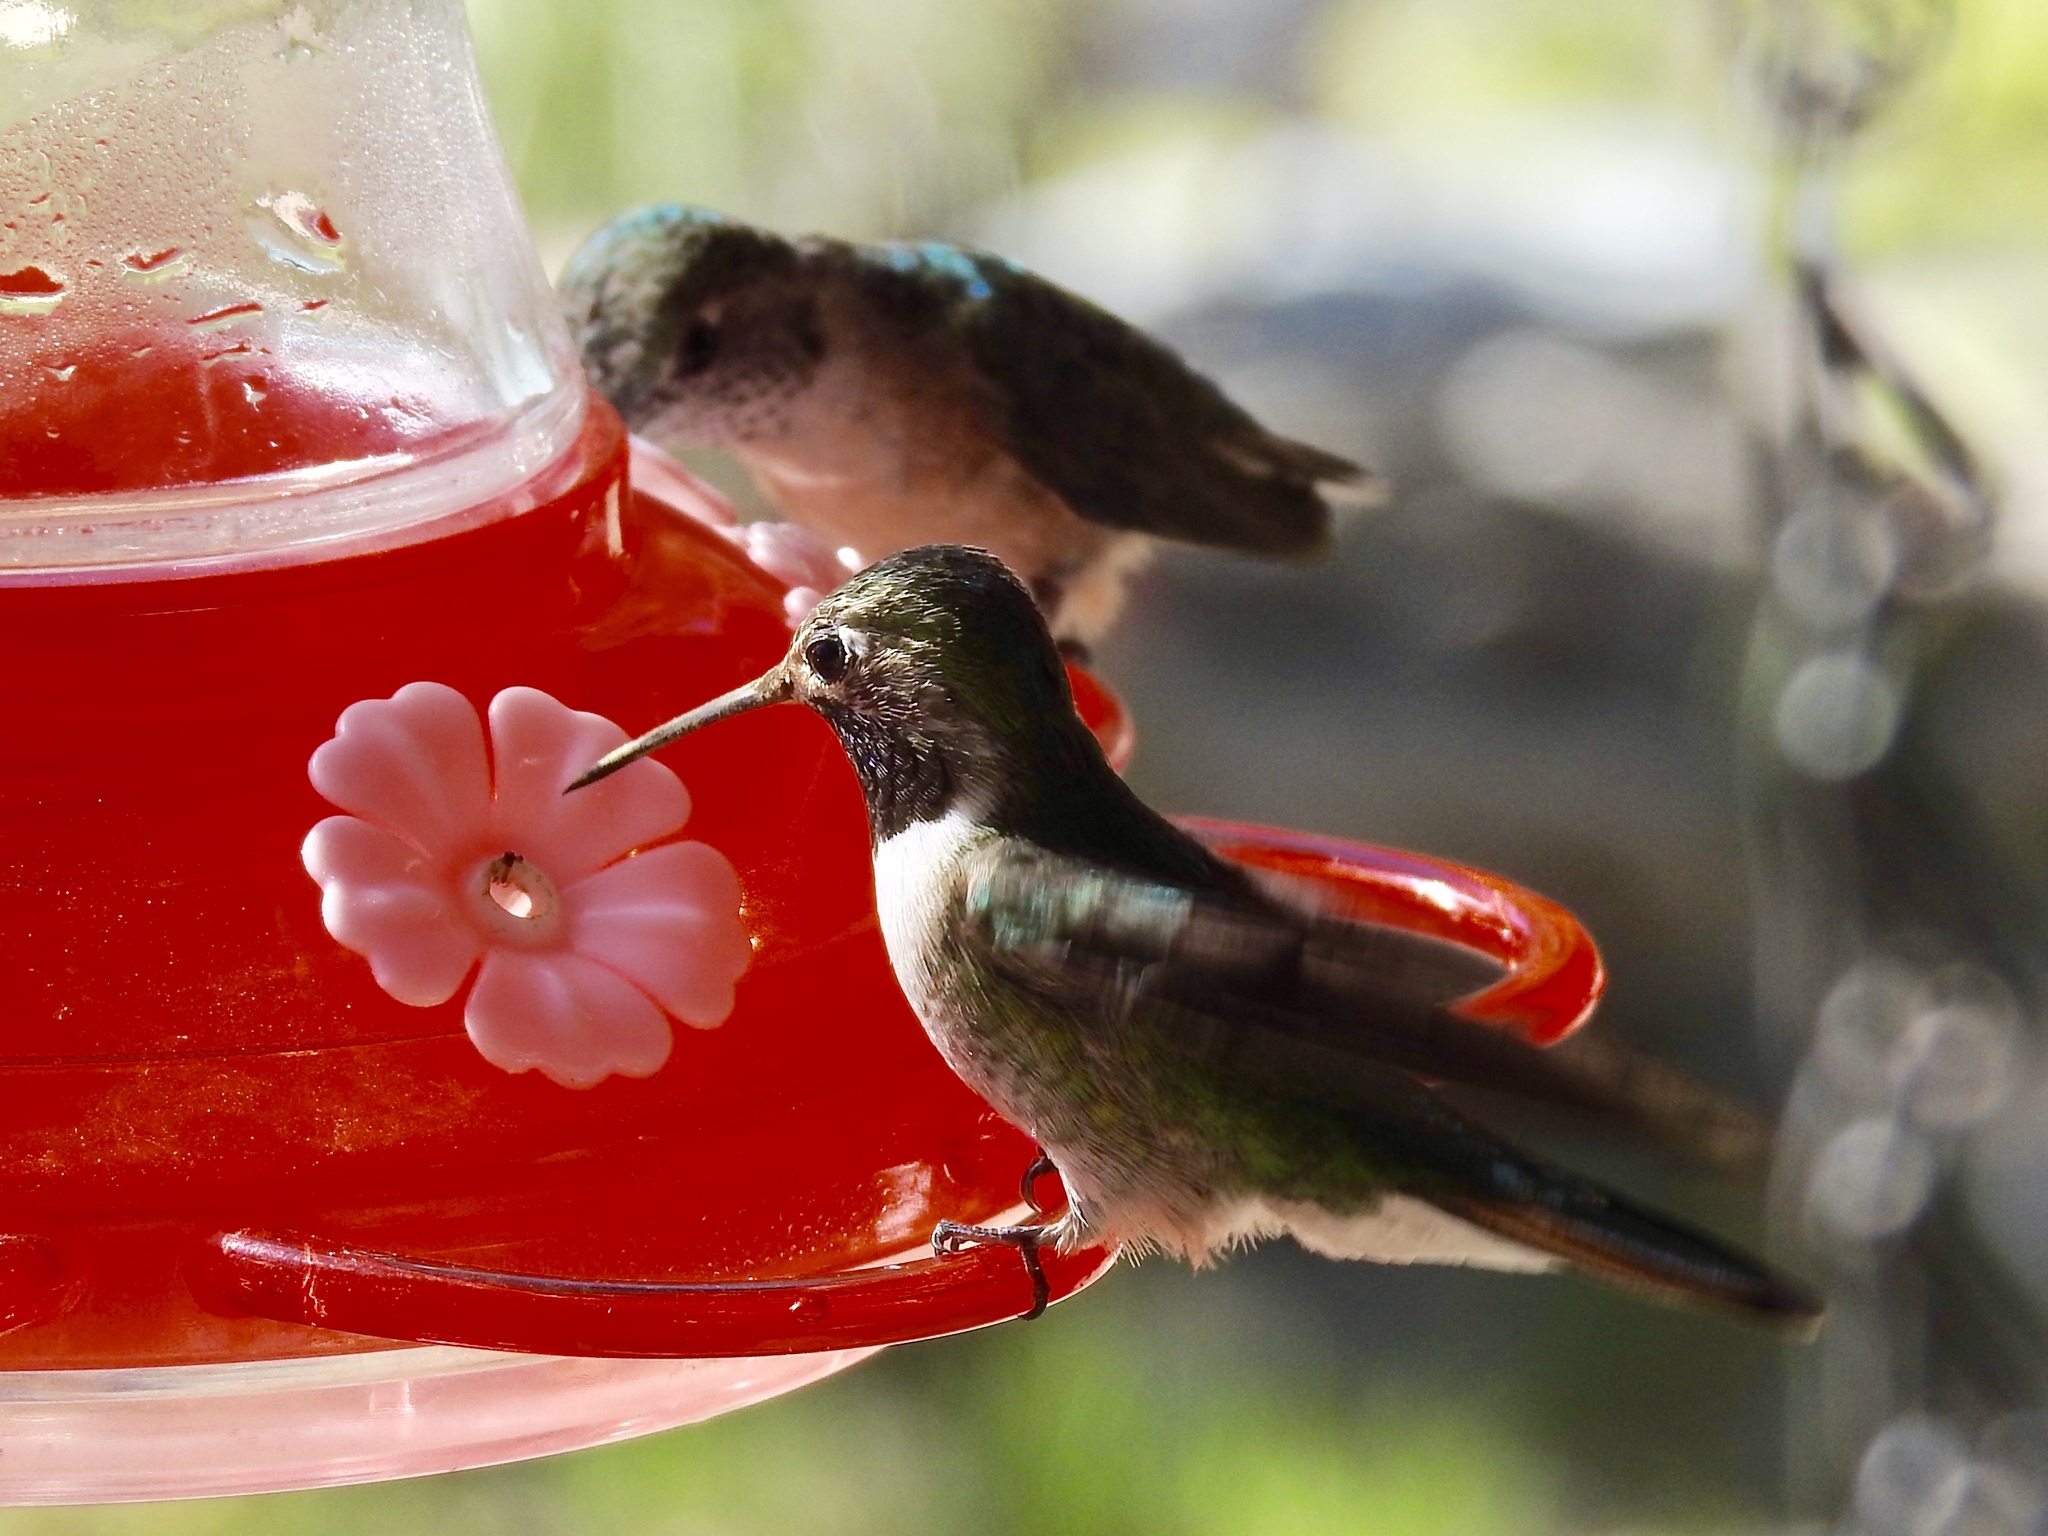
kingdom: Animalia
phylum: Chordata
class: Aves
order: Apodiformes
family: Trochilidae
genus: Selasphorus
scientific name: Selasphorus platycercus
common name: Broad-tailed hummingbird
